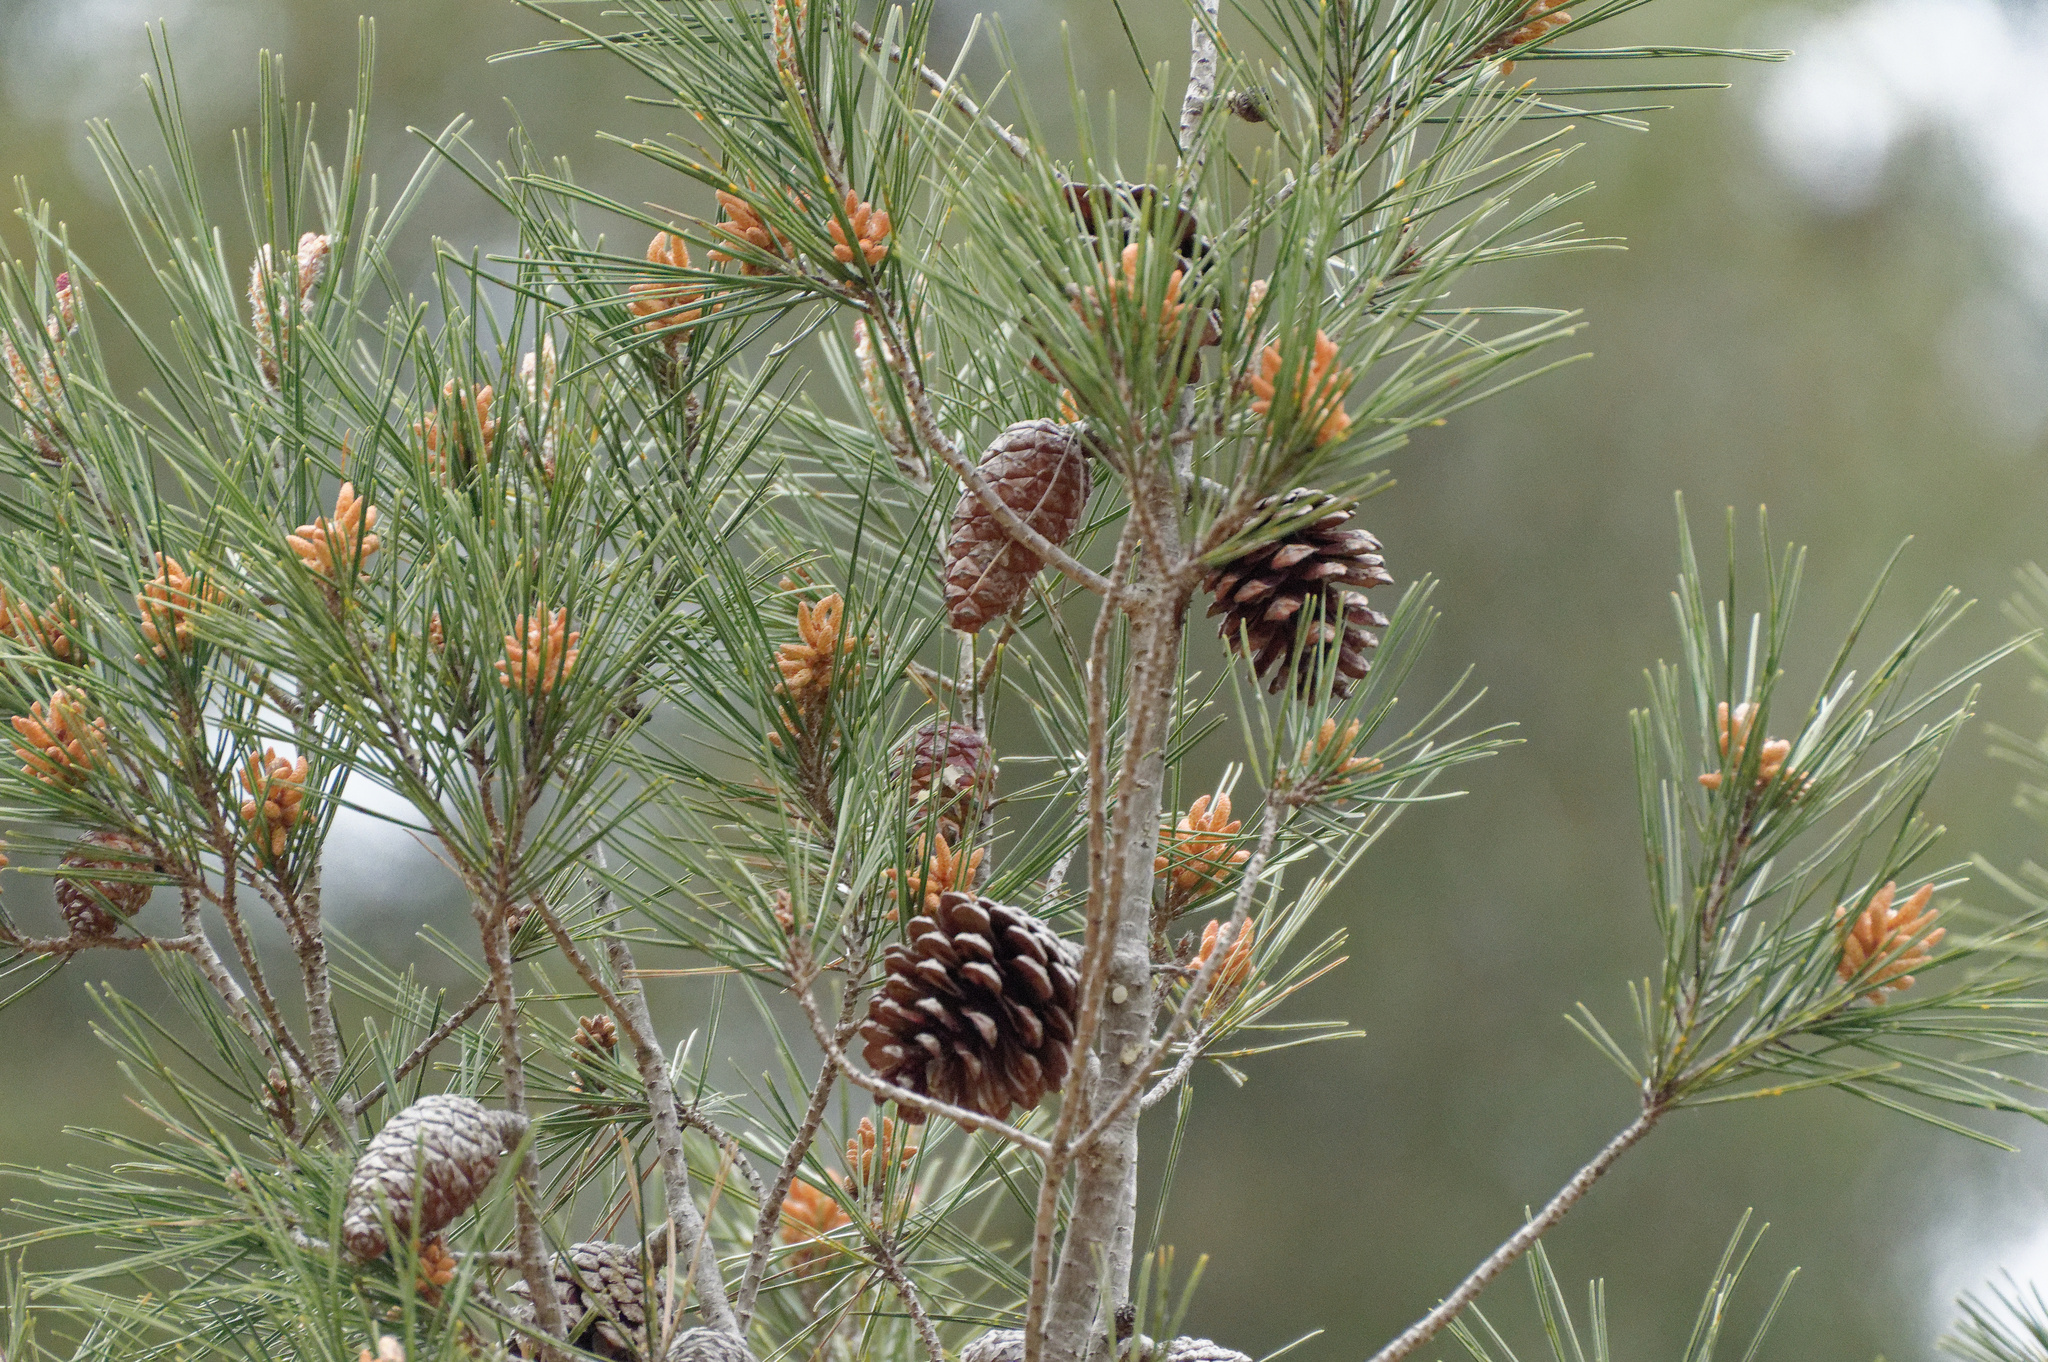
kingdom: Plantae
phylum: Tracheophyta
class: Pinopsida
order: Pinales
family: Pinaceae
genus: Pinus
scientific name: Pinus halepensis
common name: Aleppo pine
